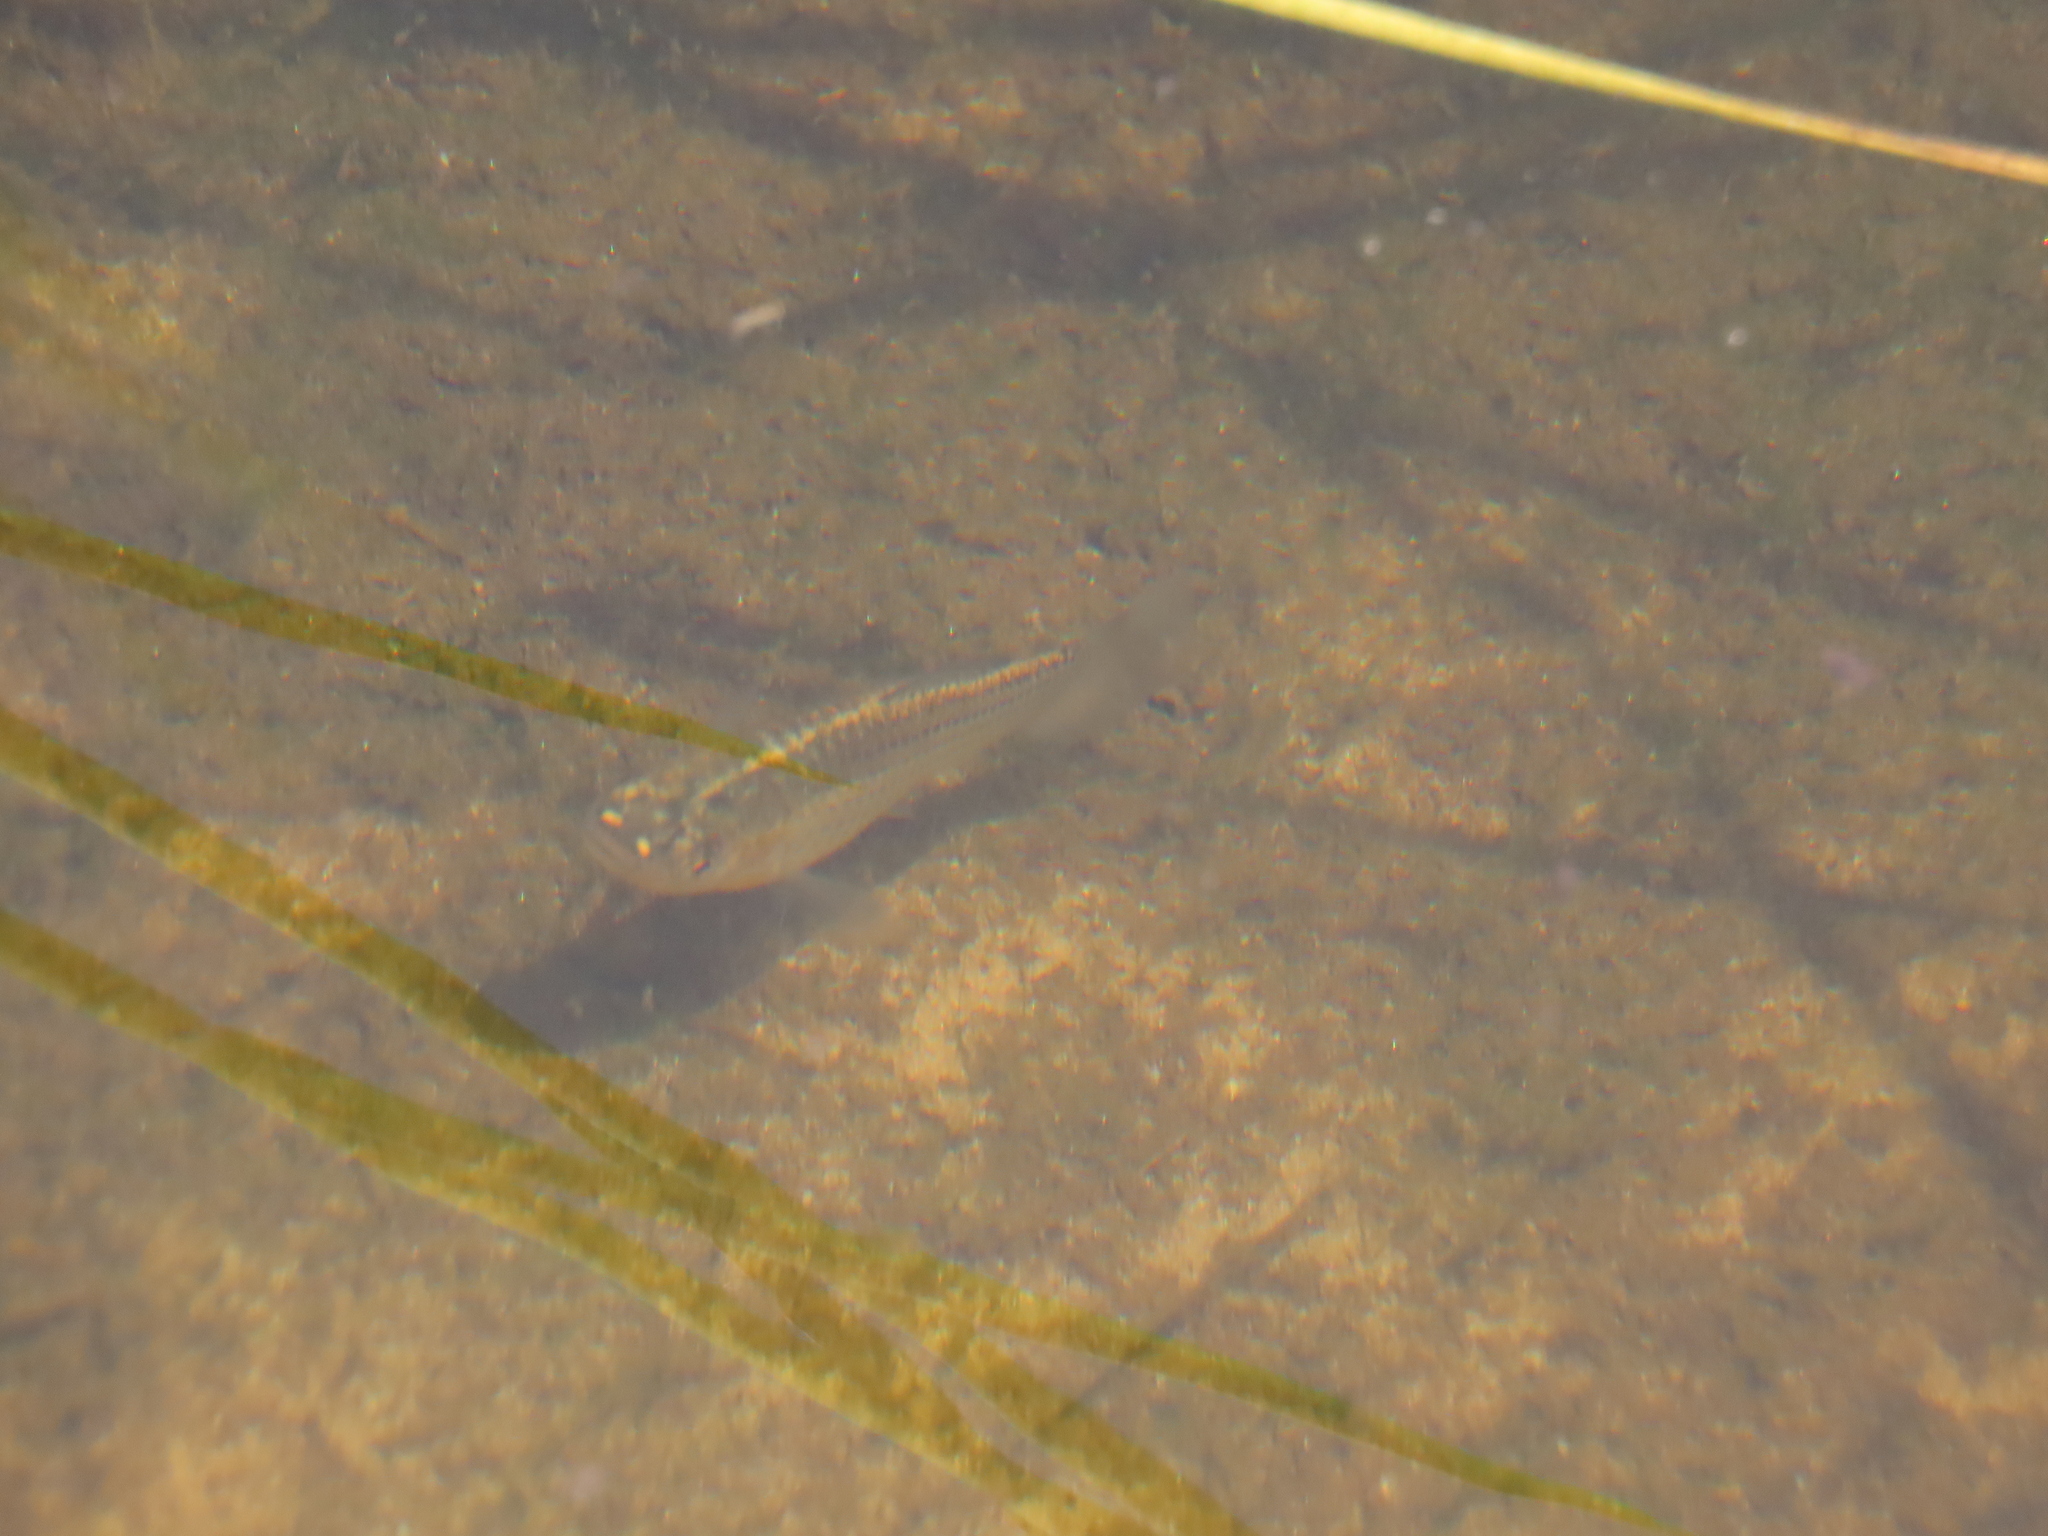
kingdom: Animalia
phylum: Chordata
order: Cyprinodontiformes
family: Poeciliidae
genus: Poecilia
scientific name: Poecilia latipinna
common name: Sailfin molly
